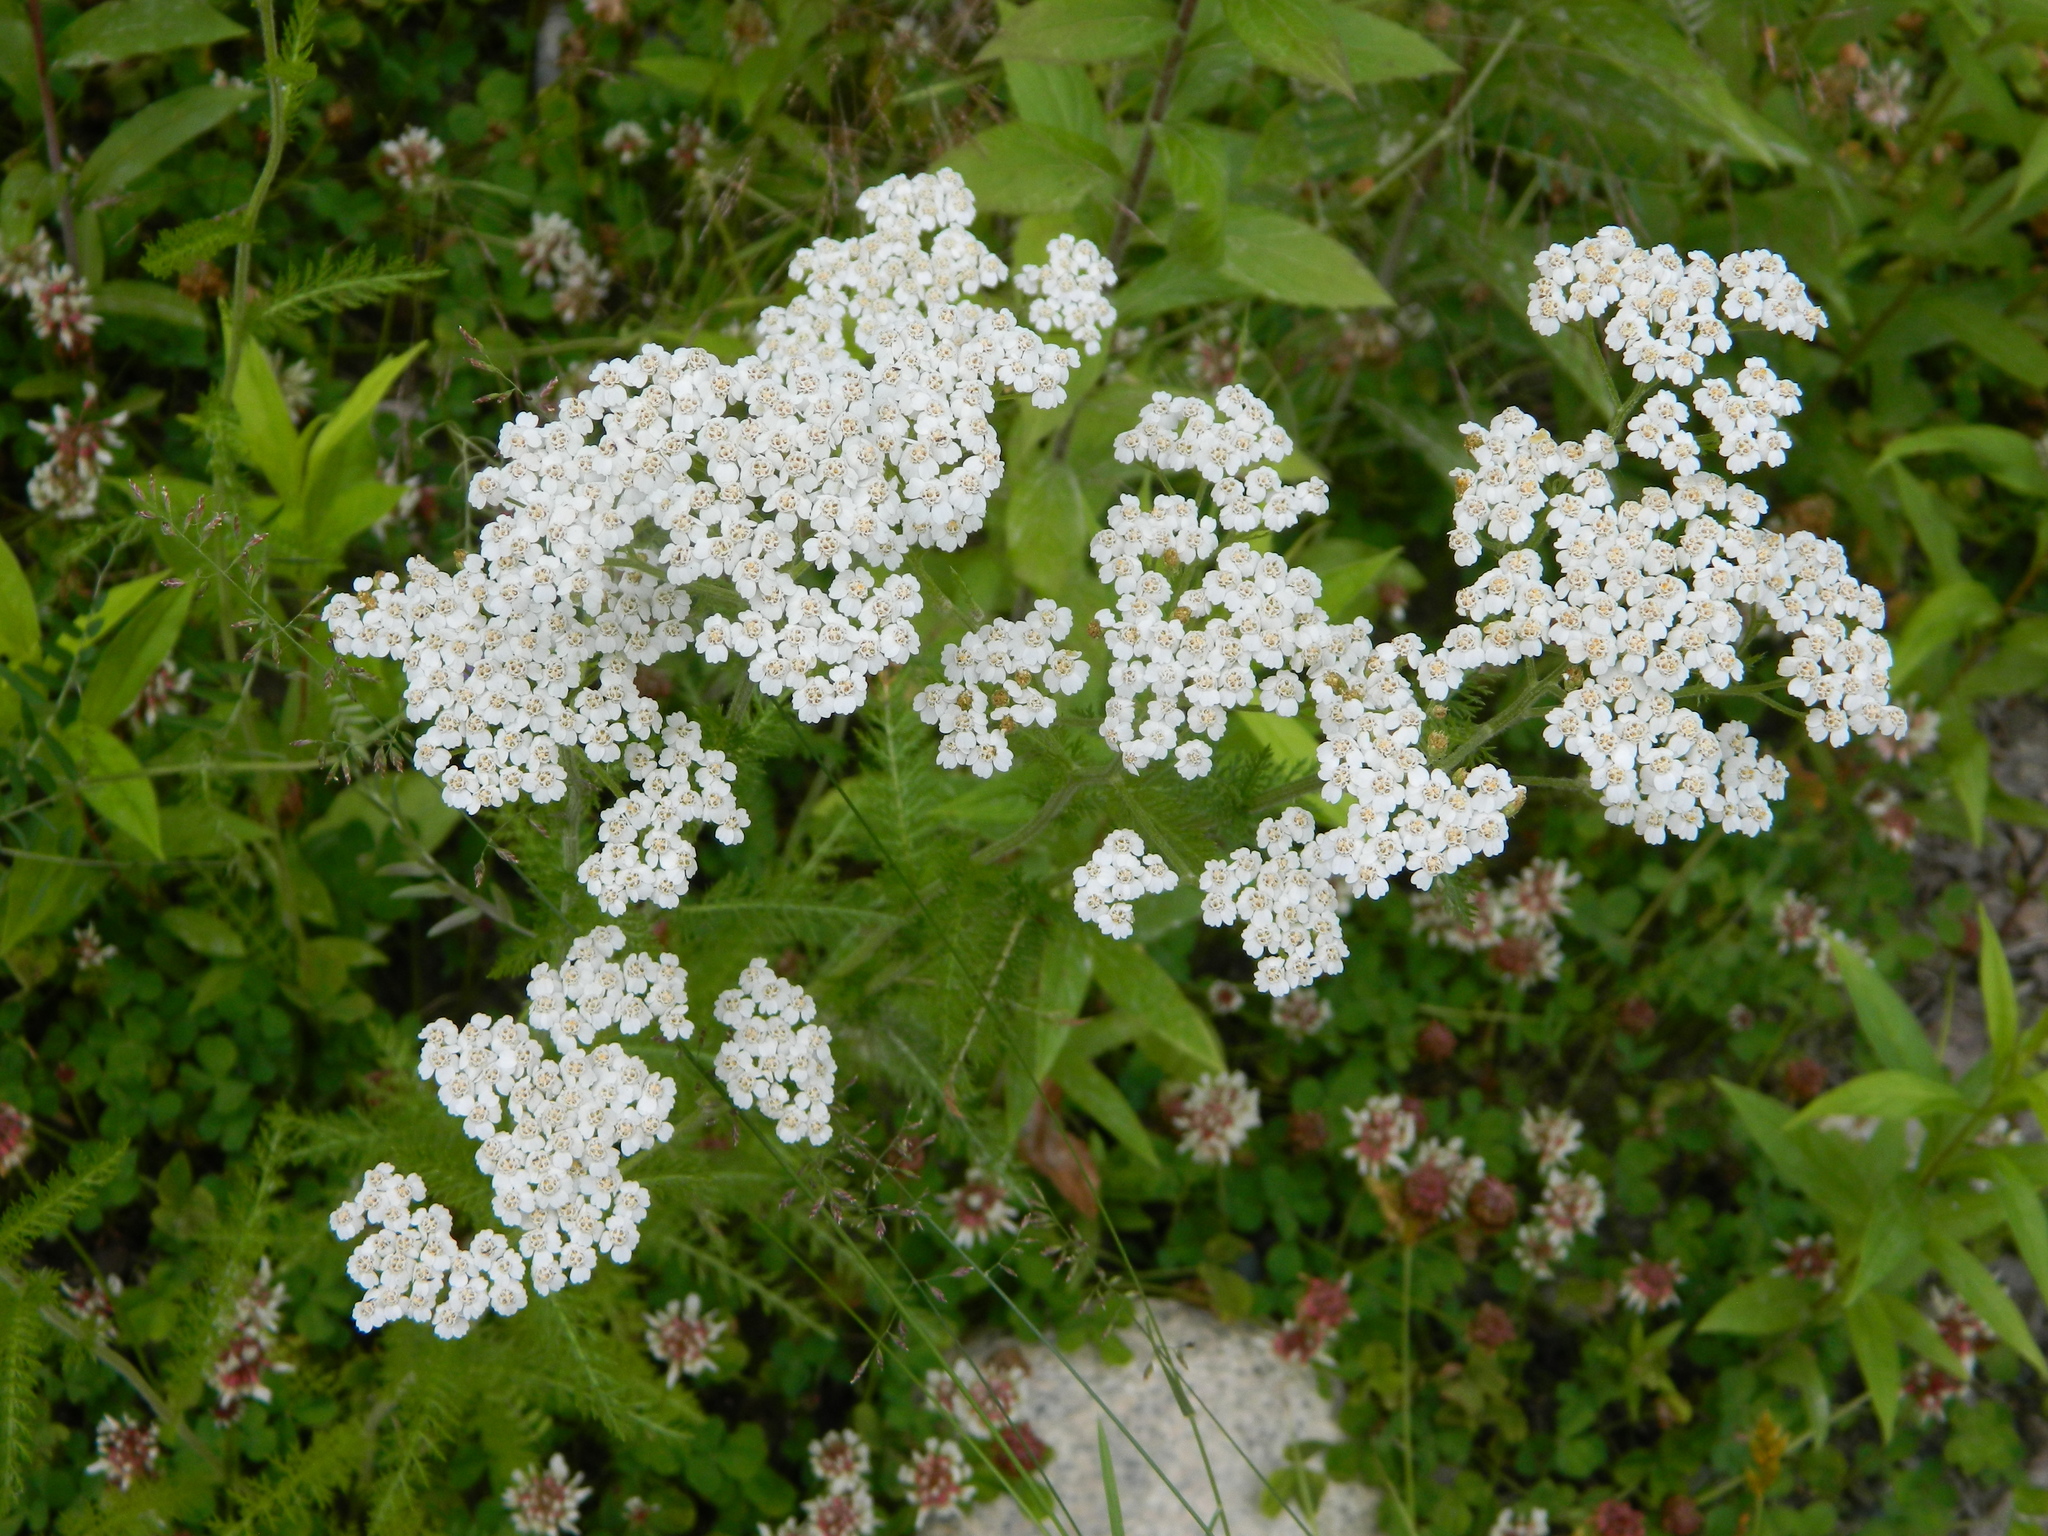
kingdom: Plantae
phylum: Tracheophyta
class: Magnoliopsida
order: Asterales
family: Asteraceae
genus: Achillea
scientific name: Achillea millefolium
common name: Yarrow
